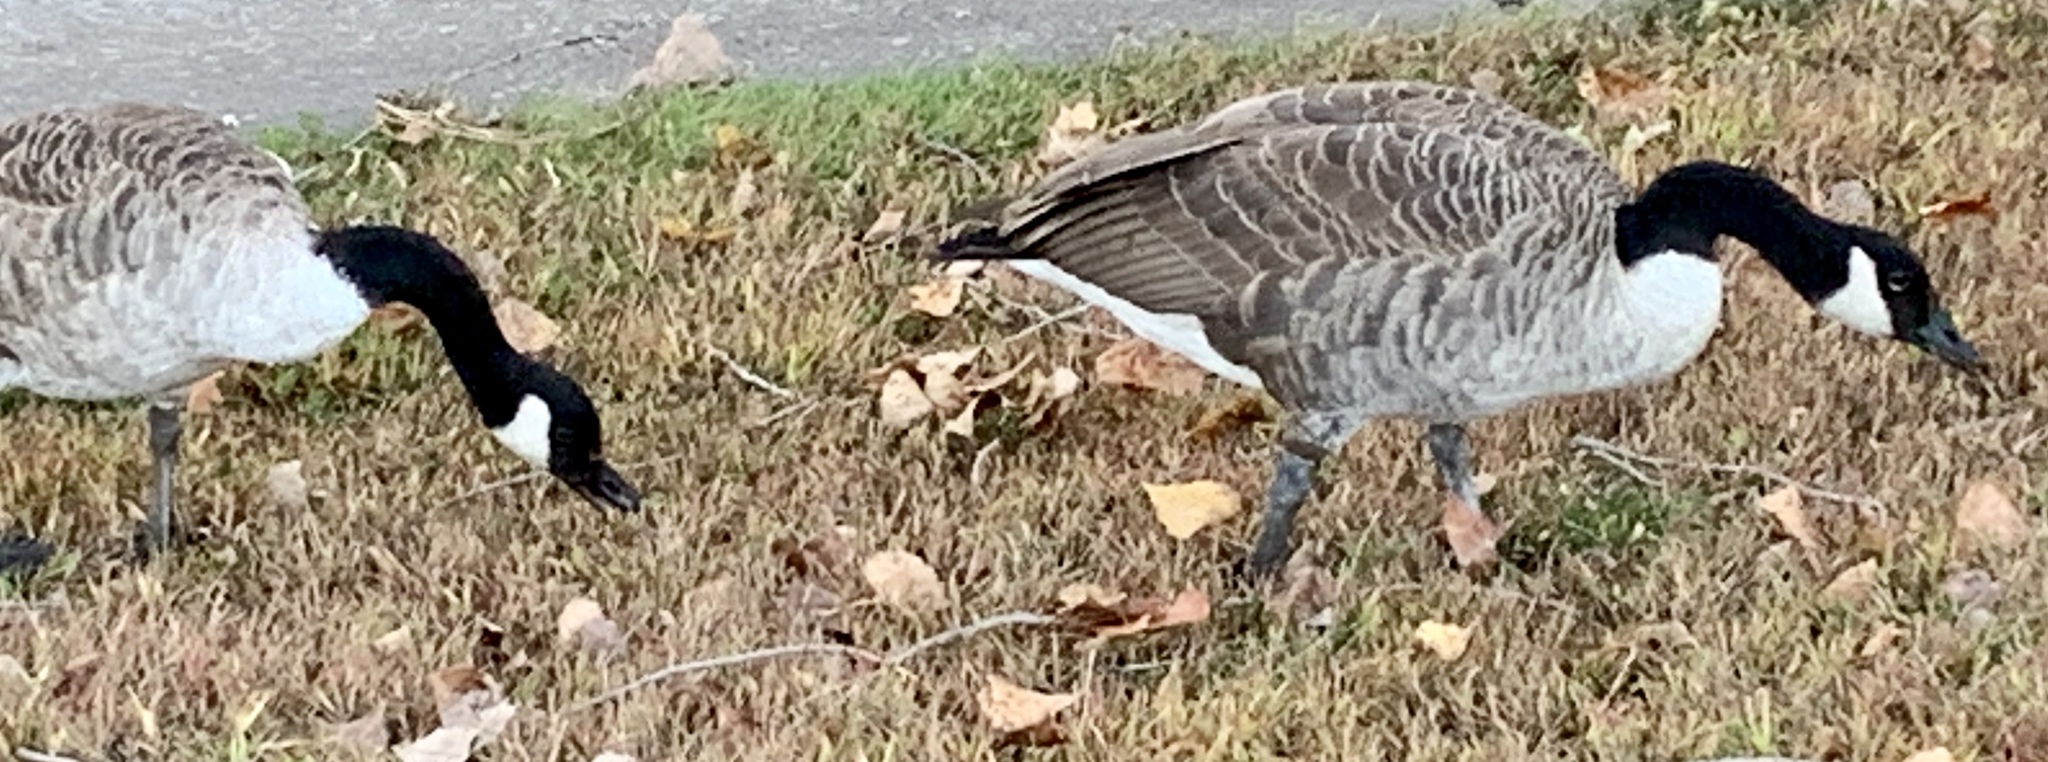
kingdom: Animalia
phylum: Chordata
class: Aves
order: Anseriformes
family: Anatidae
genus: Branta
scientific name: Branta canadensis
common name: Canada goose
